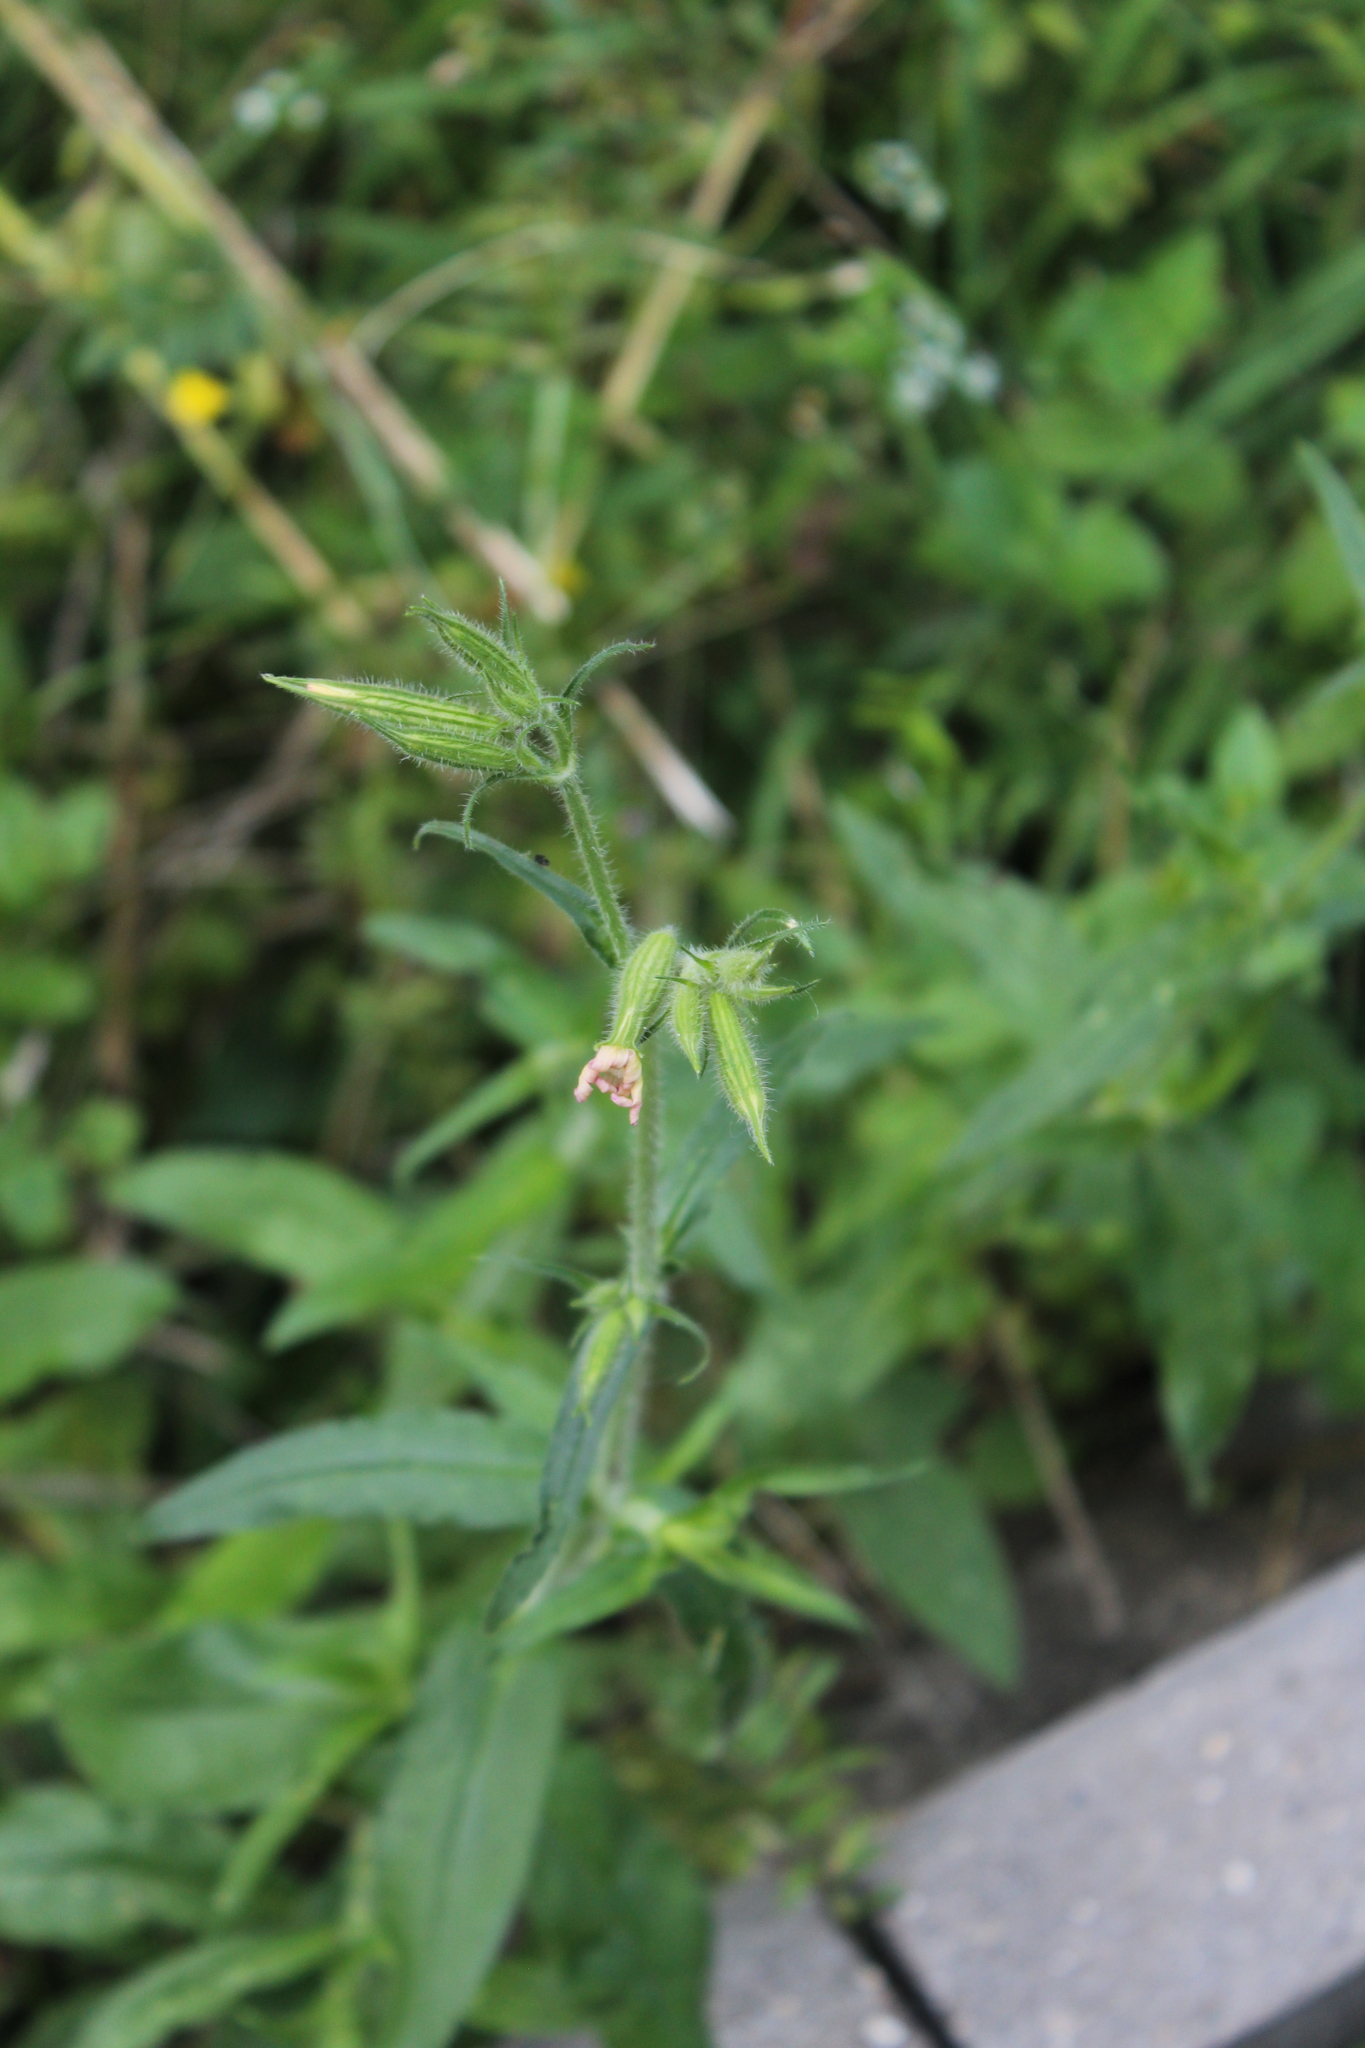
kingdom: Plantae
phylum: Tracheophyta
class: Magnoliopsida
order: Caryophyllales
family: Caryophyllaceae
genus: Silene
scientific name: Silene noctiflora
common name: Night-flowering catchfly
